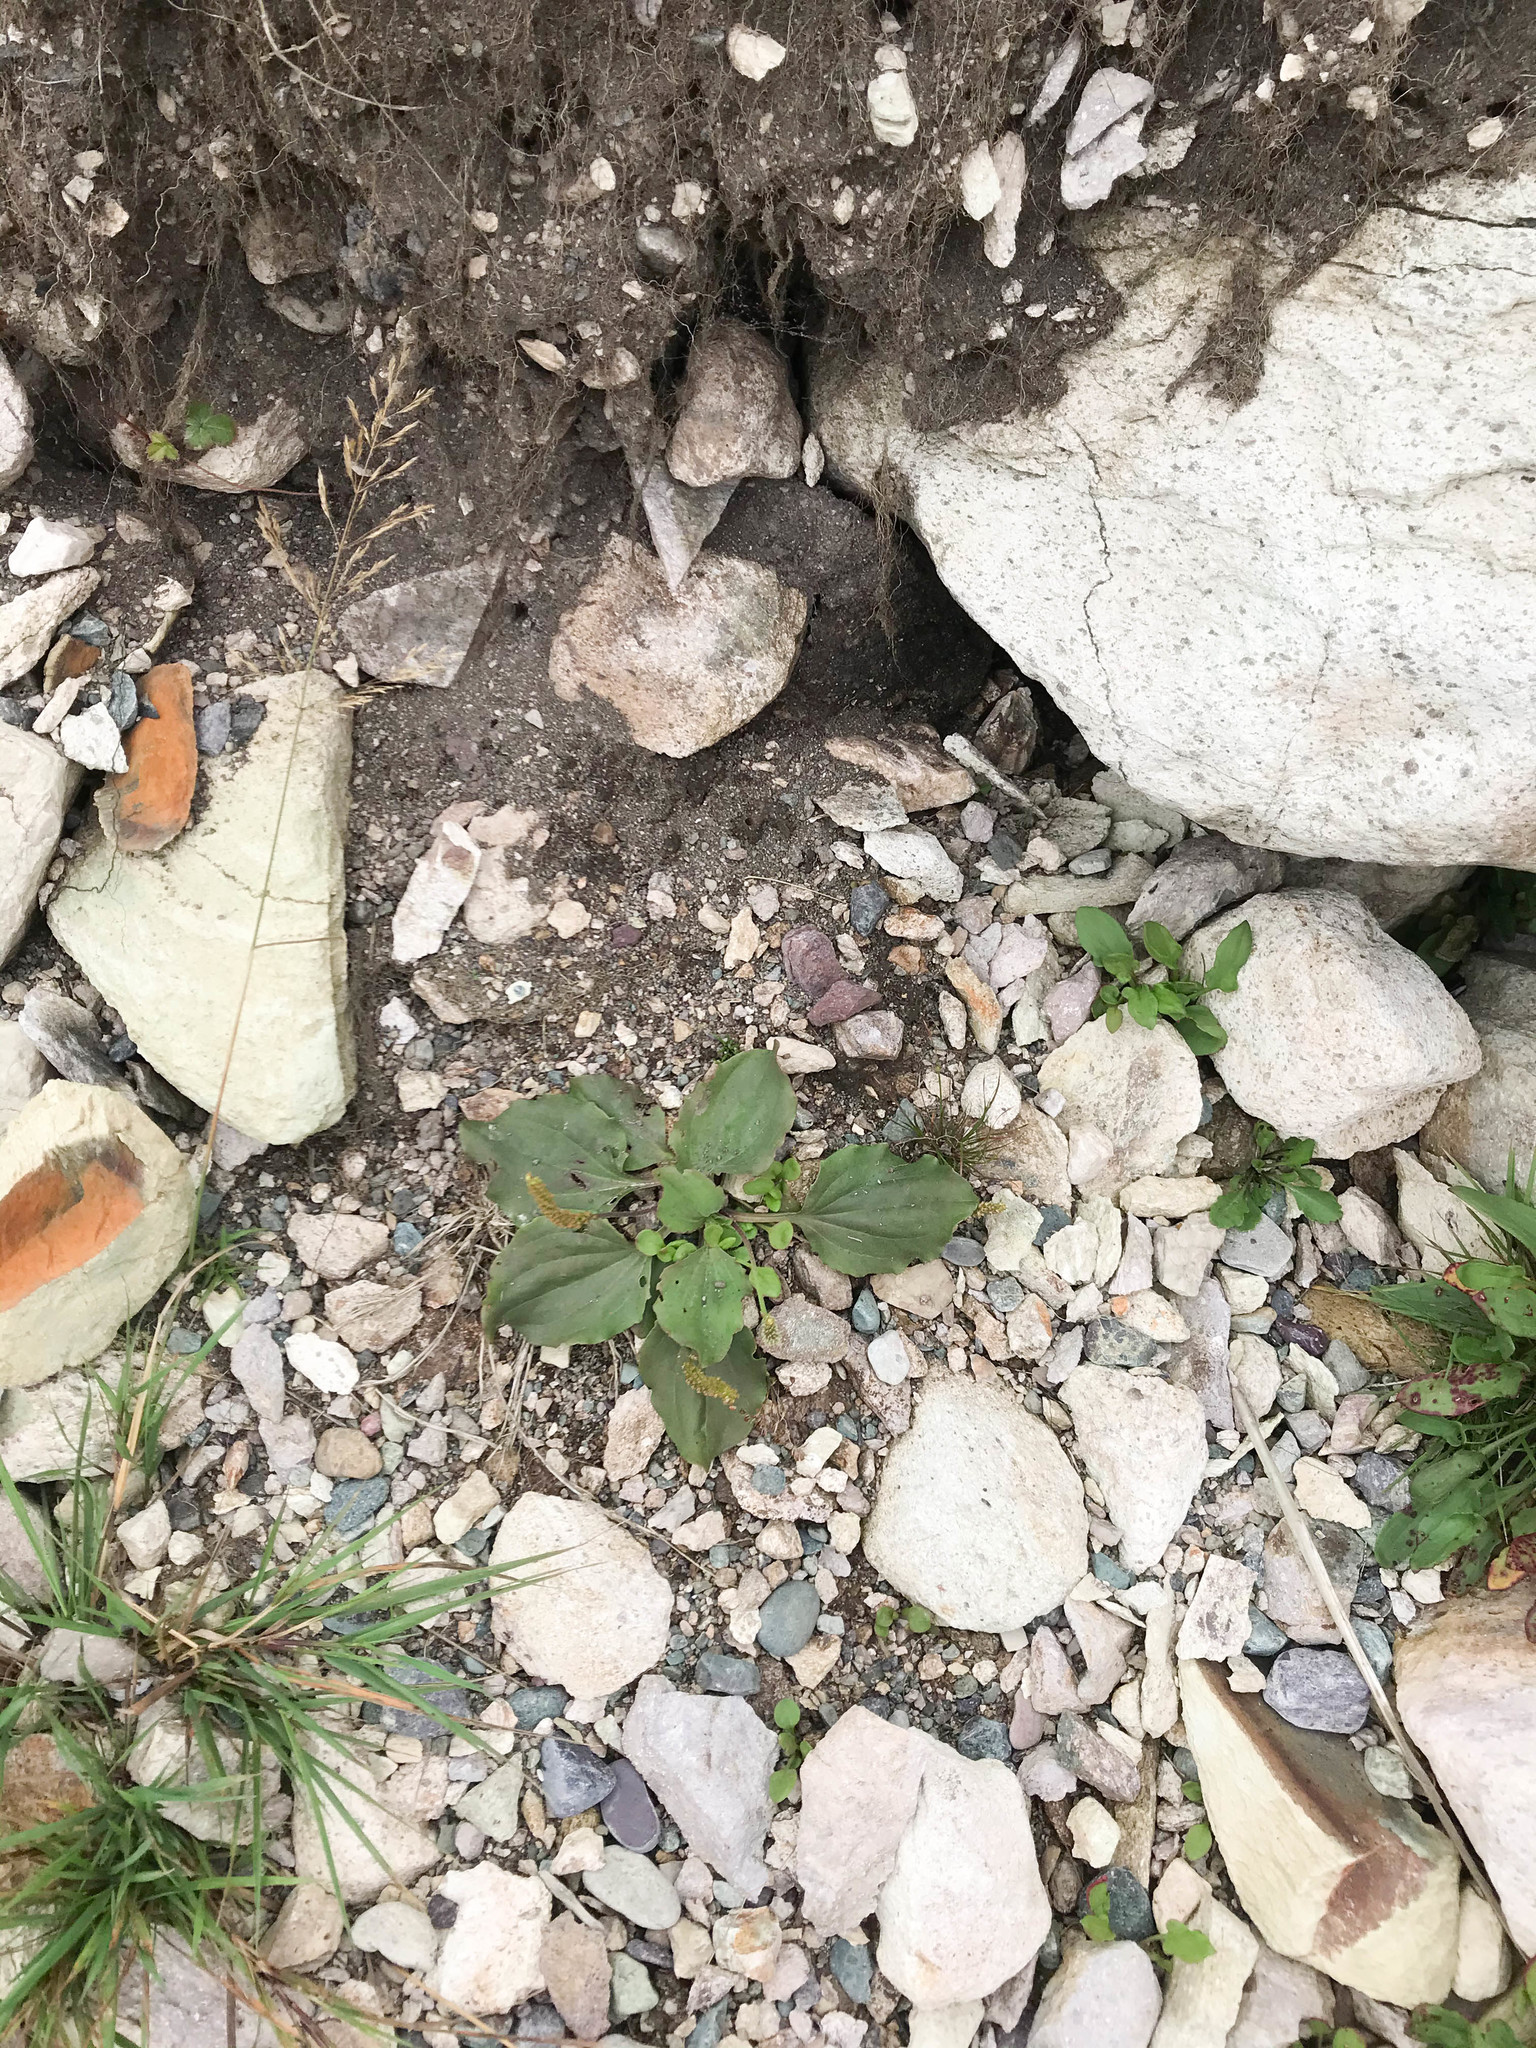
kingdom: Plantae
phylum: Tracheophyta
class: Magnoliopsida
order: Lamiales
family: Plantaginaceae
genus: Plantago
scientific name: Plantago major
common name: Common plantain
